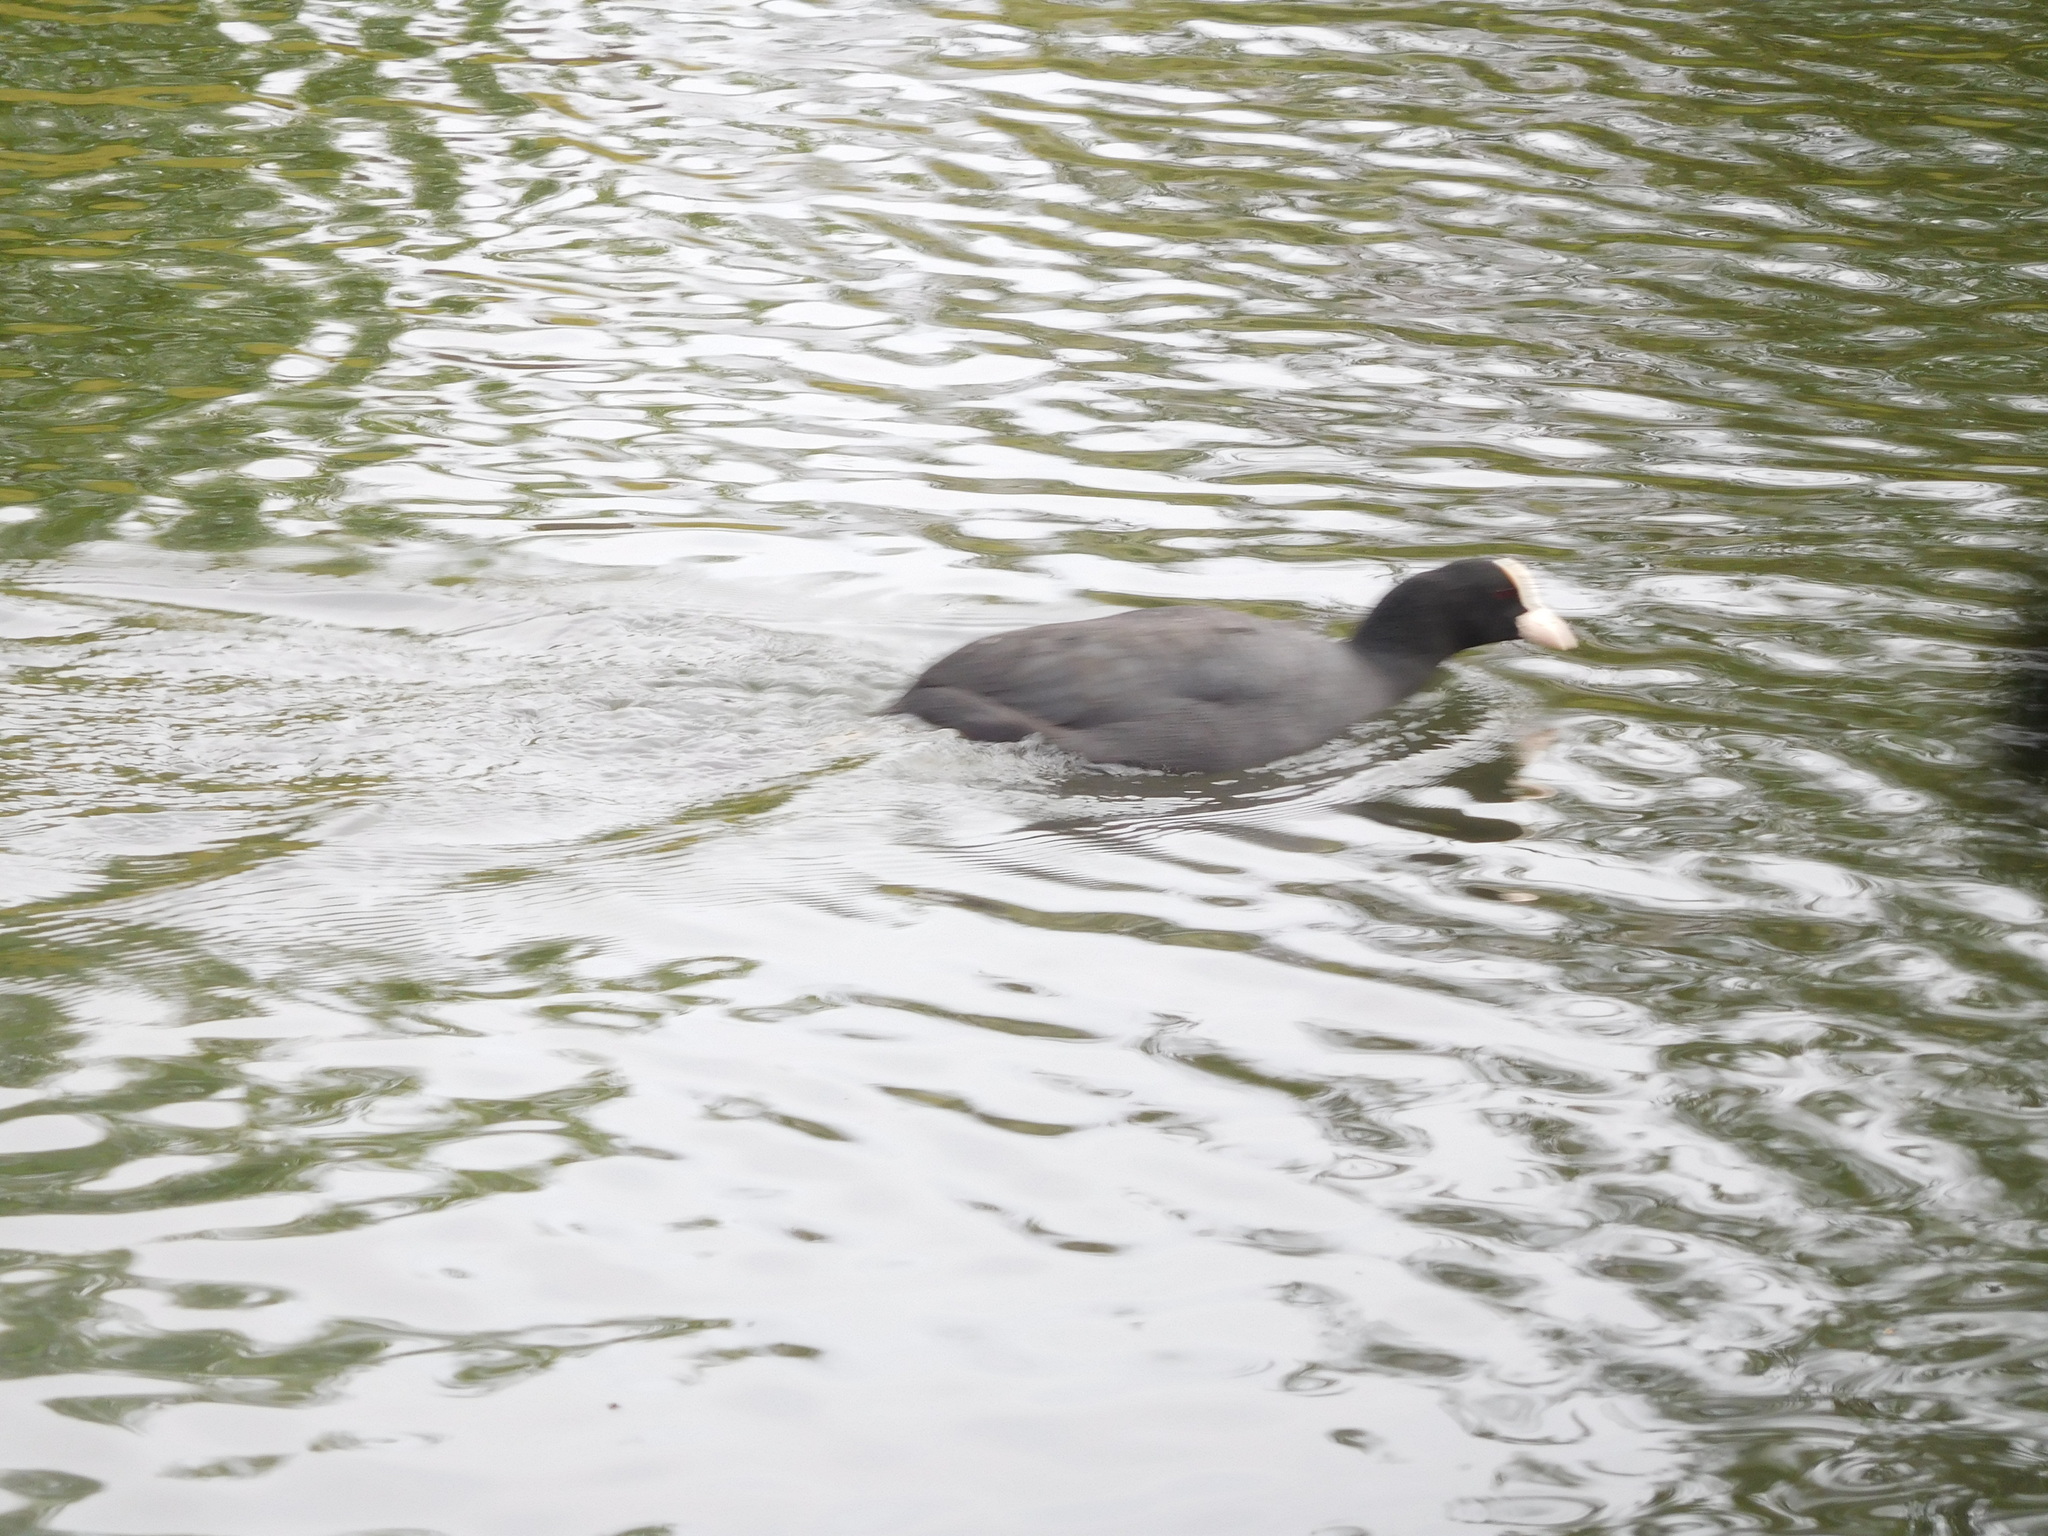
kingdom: Animalia
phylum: Chordata
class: Aves
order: Gruiformes
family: Rallidae
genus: Fulica
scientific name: Fulica atra
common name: Eurasian coot
